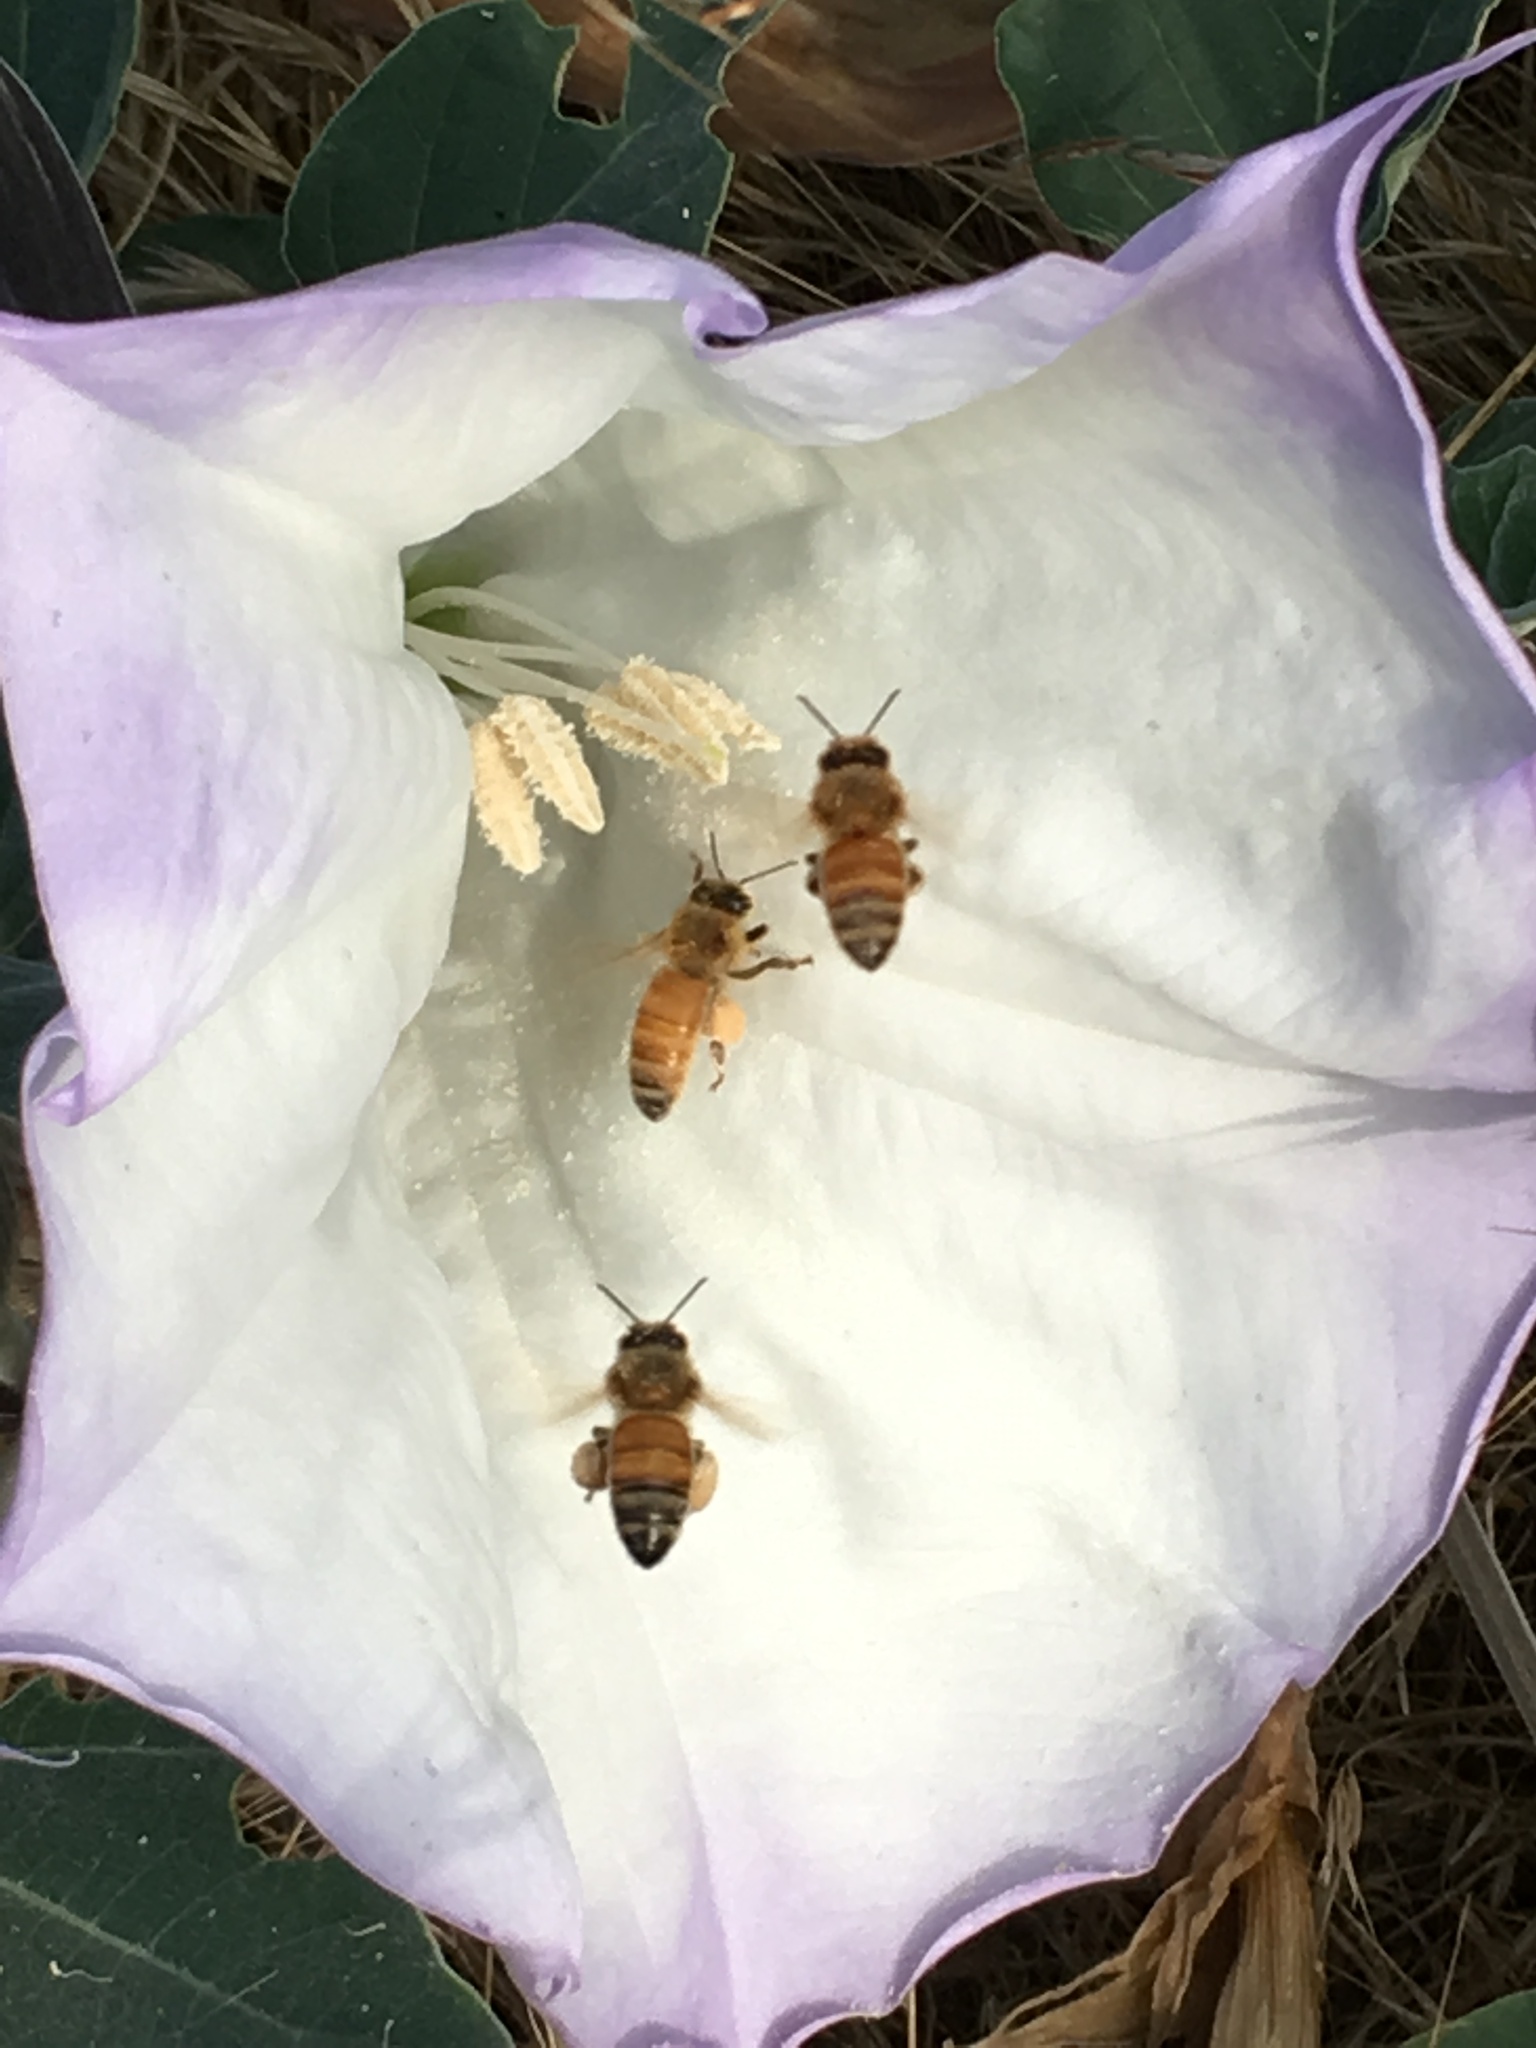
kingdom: Plantae
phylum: Tracheophyta
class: Magnoliopsida
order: Solanales
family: Solanaceae
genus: Datura
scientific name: Datura wrightii
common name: Sacred thorn-apple
